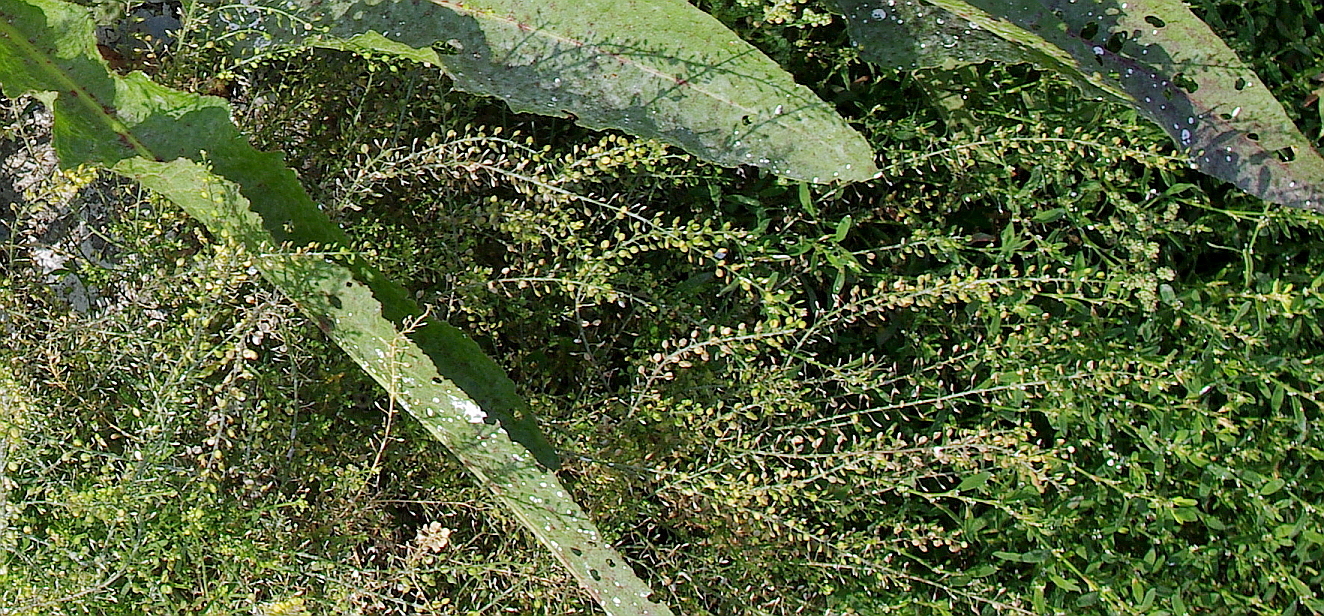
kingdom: Plantae
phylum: Tracheophyta
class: Magnoliopsida
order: Brassicales
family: Brassicaceae
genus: Lepidium
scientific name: Lepidium ruderale
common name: Narrow-leaved pepperwort
